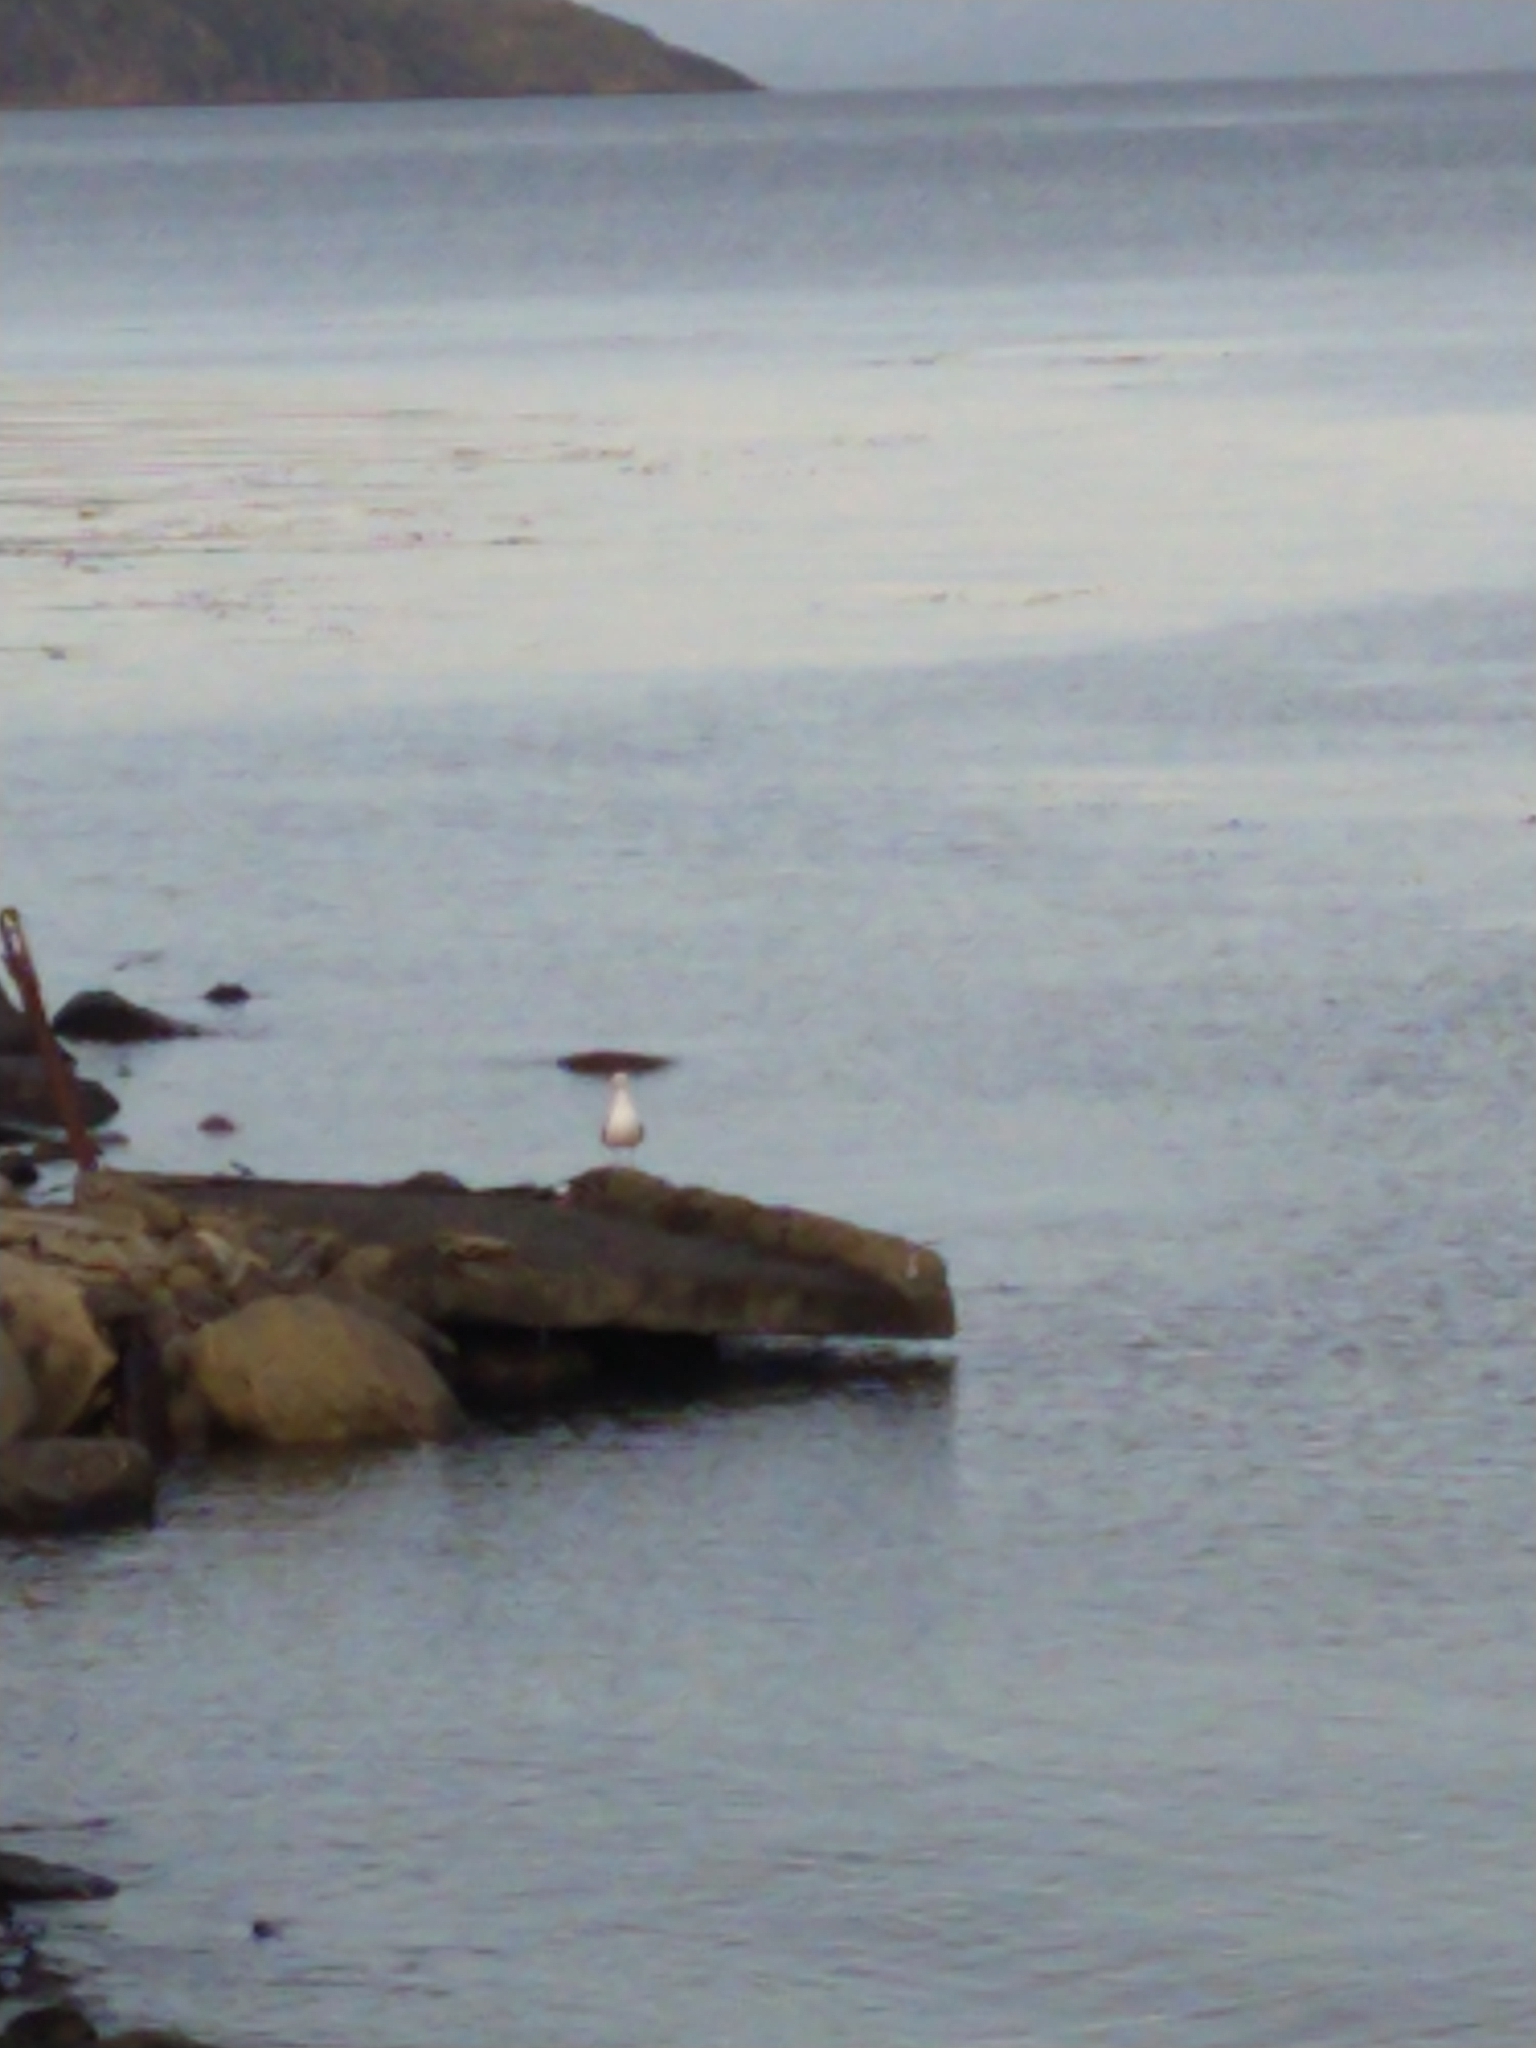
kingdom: Animalia
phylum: Chordata
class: Aves
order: Charadriiformes
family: Laridae
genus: Larus
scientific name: Larus dominicanus
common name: Kelp gull
